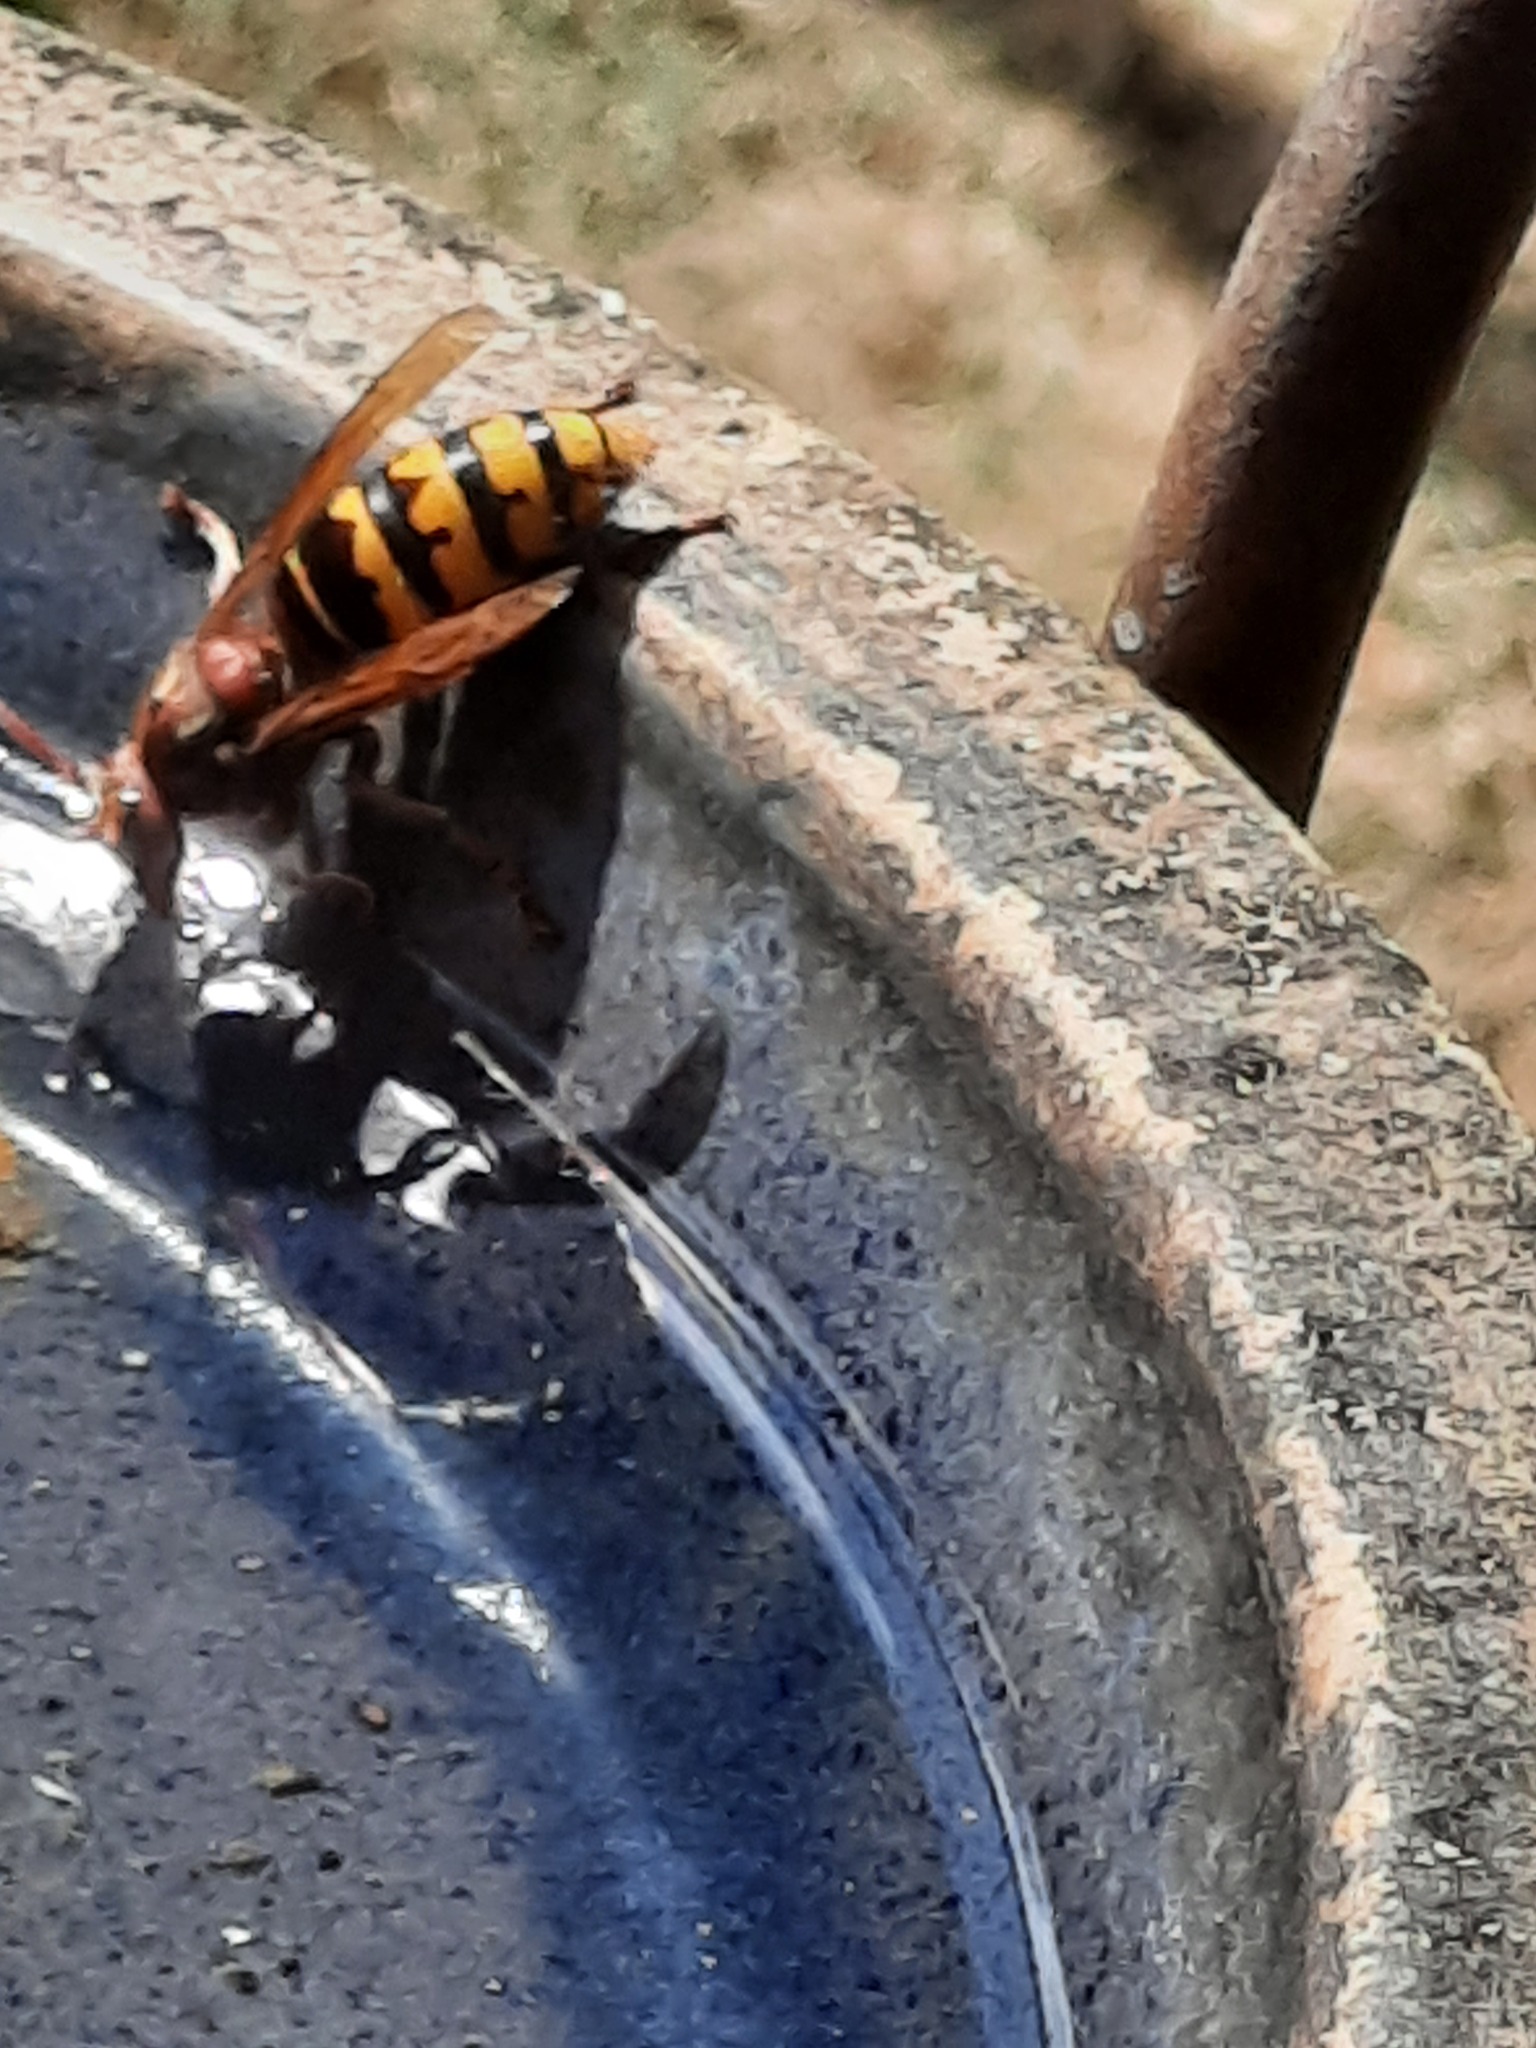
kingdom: Animalia
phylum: Arthropoda
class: Insecta
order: Hymenoptera
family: Vespidae
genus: Vespa
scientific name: Vespa crabro
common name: Hornet
